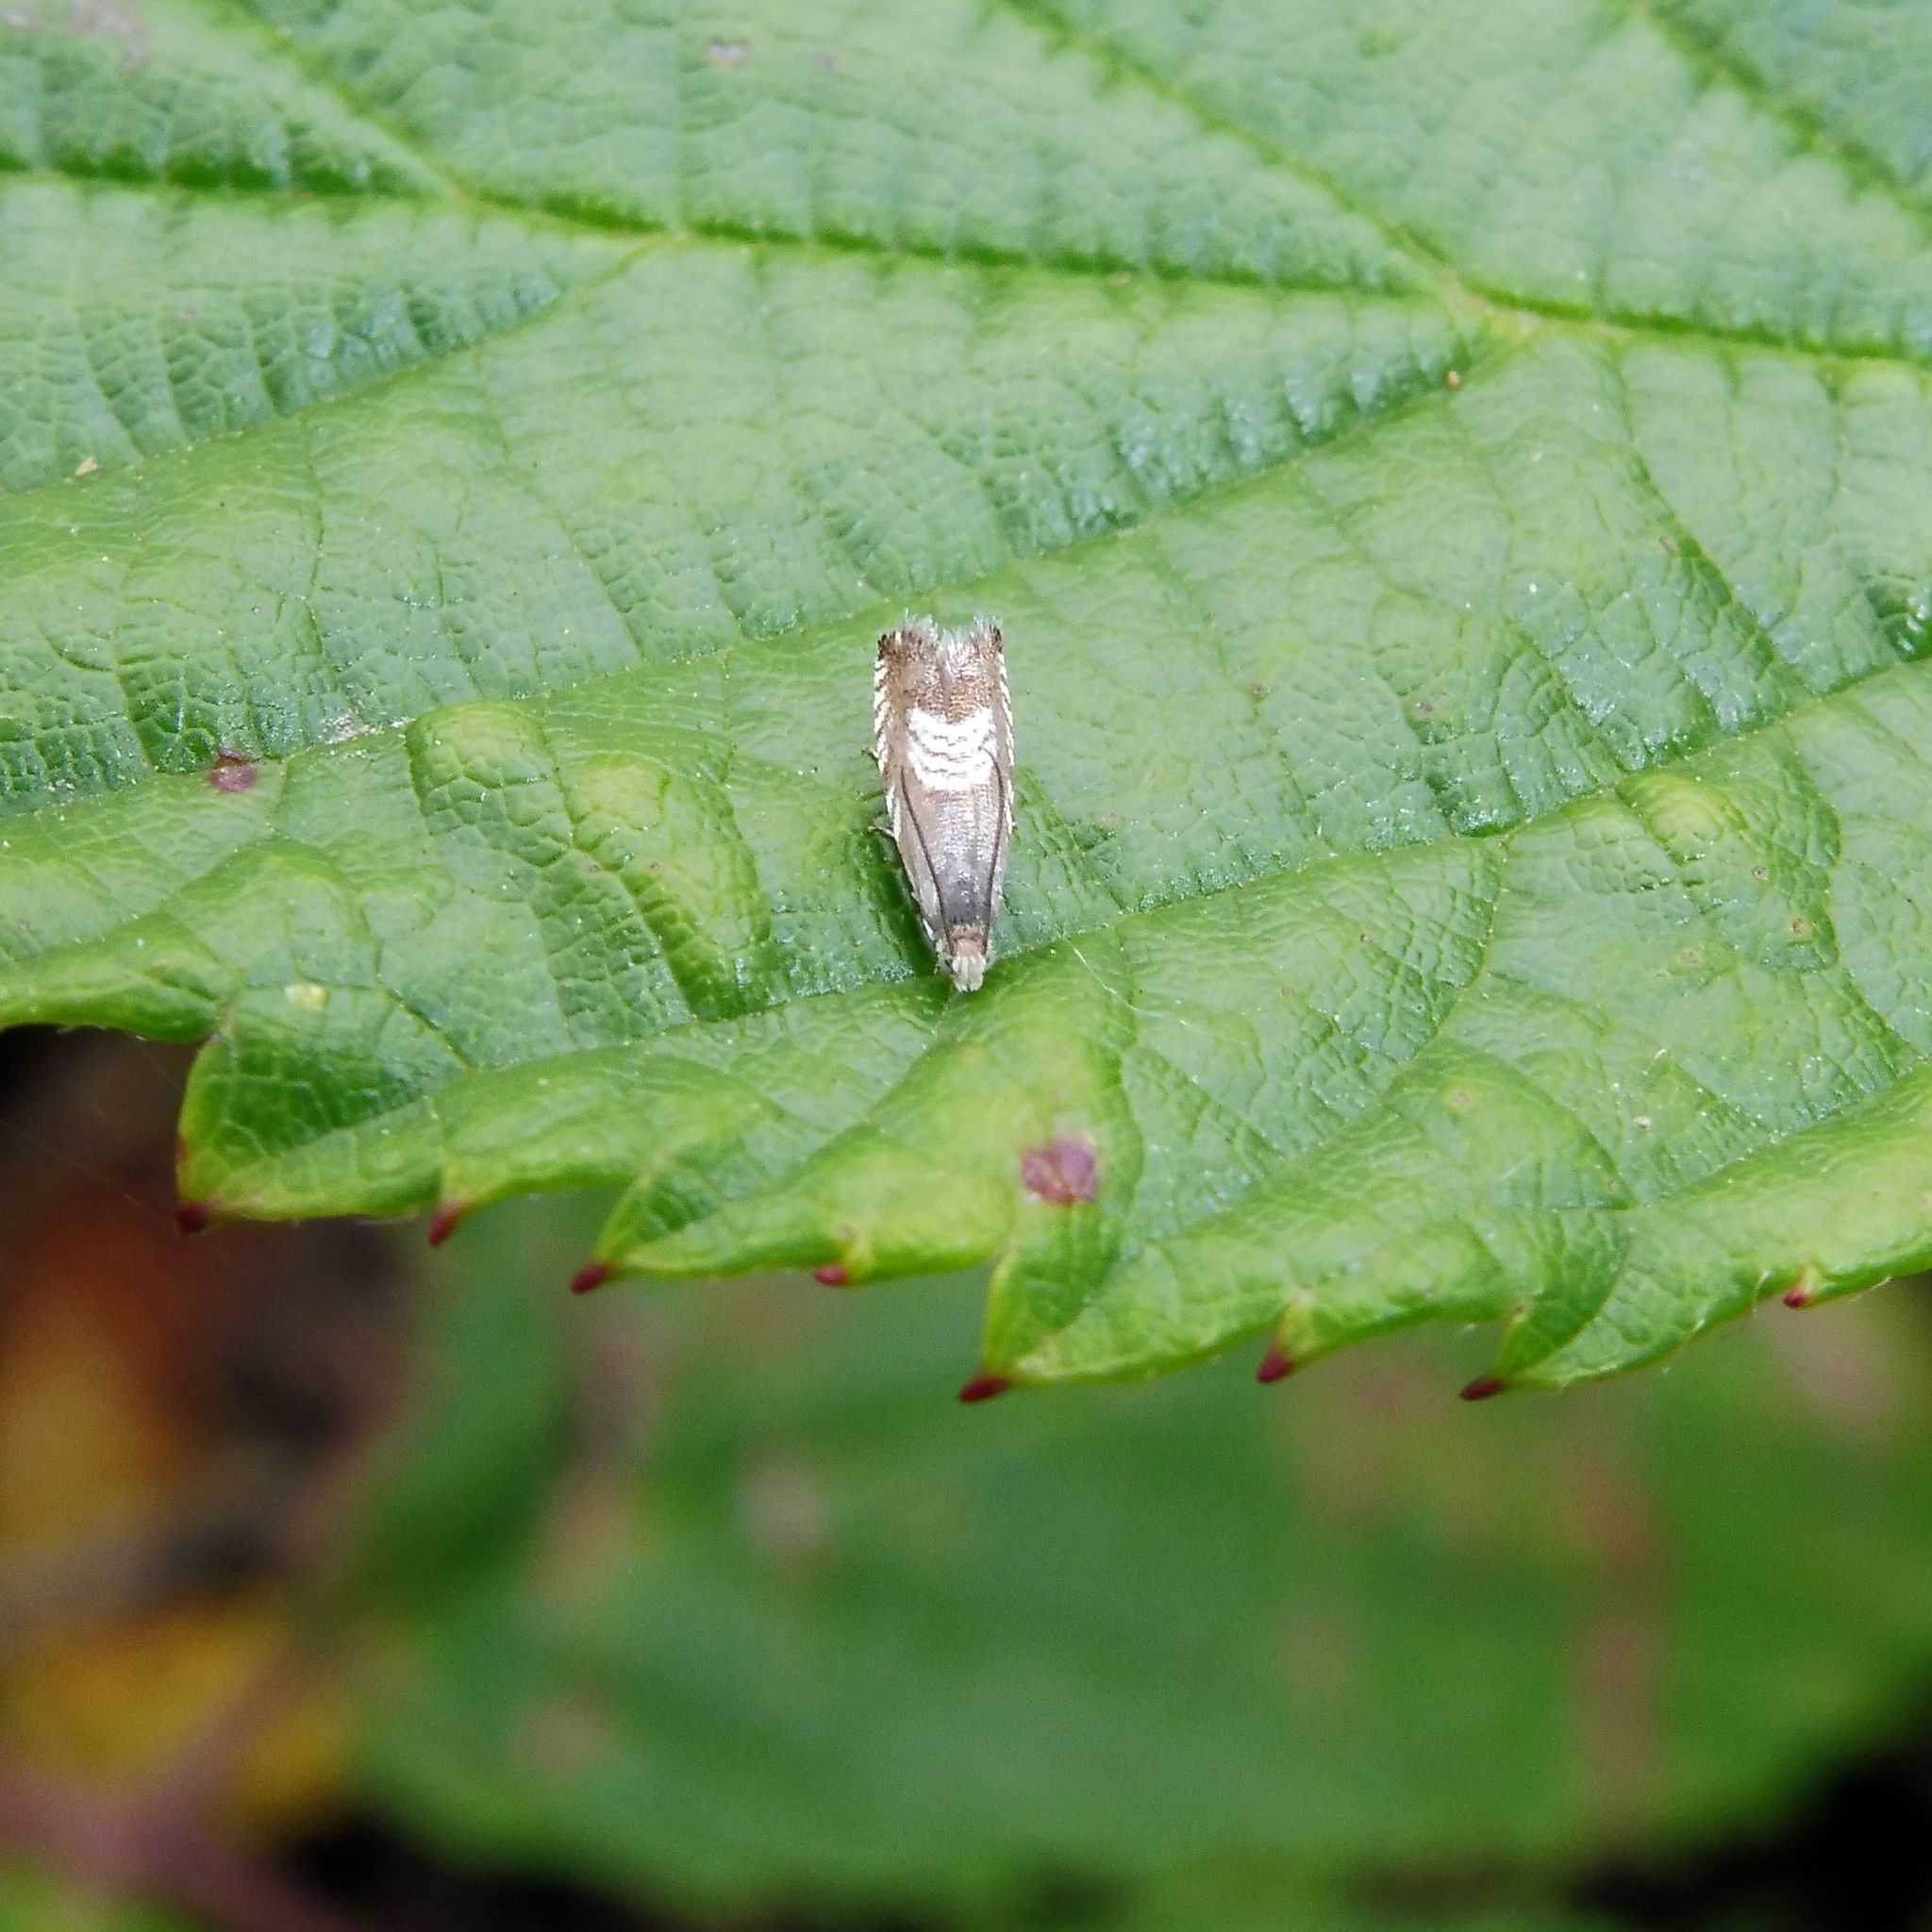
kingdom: Animalia
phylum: Arthropoda
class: Insecta
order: Lepidoptera
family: Tortricidae
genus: Grapholita
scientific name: Grapholita compositella
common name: Triple-stripe piercer
